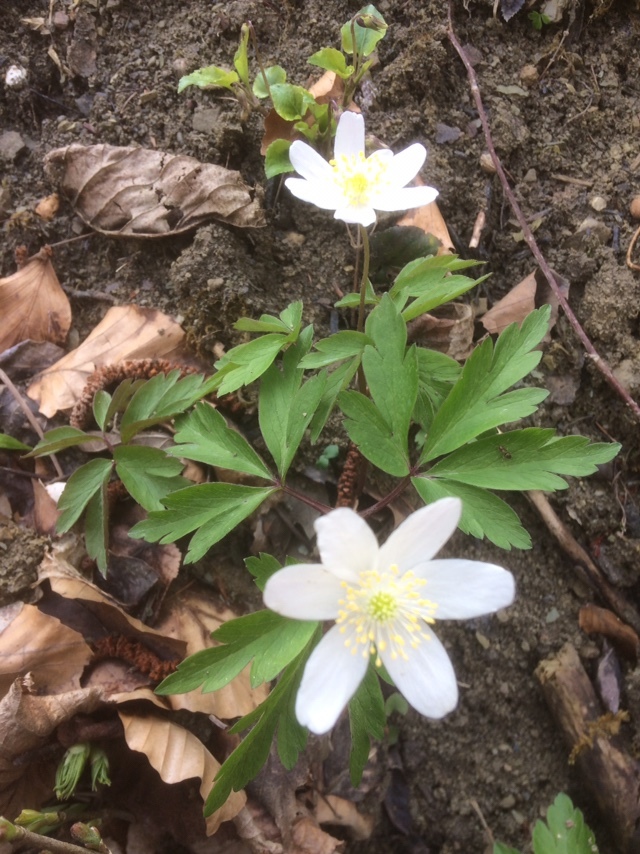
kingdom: Plantae
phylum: Tracheophyta
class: Magnoliopsida
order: Ranunculales
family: Ranunculaceae
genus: Anemone
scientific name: Anemone nemorosa
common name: Wood anemone
